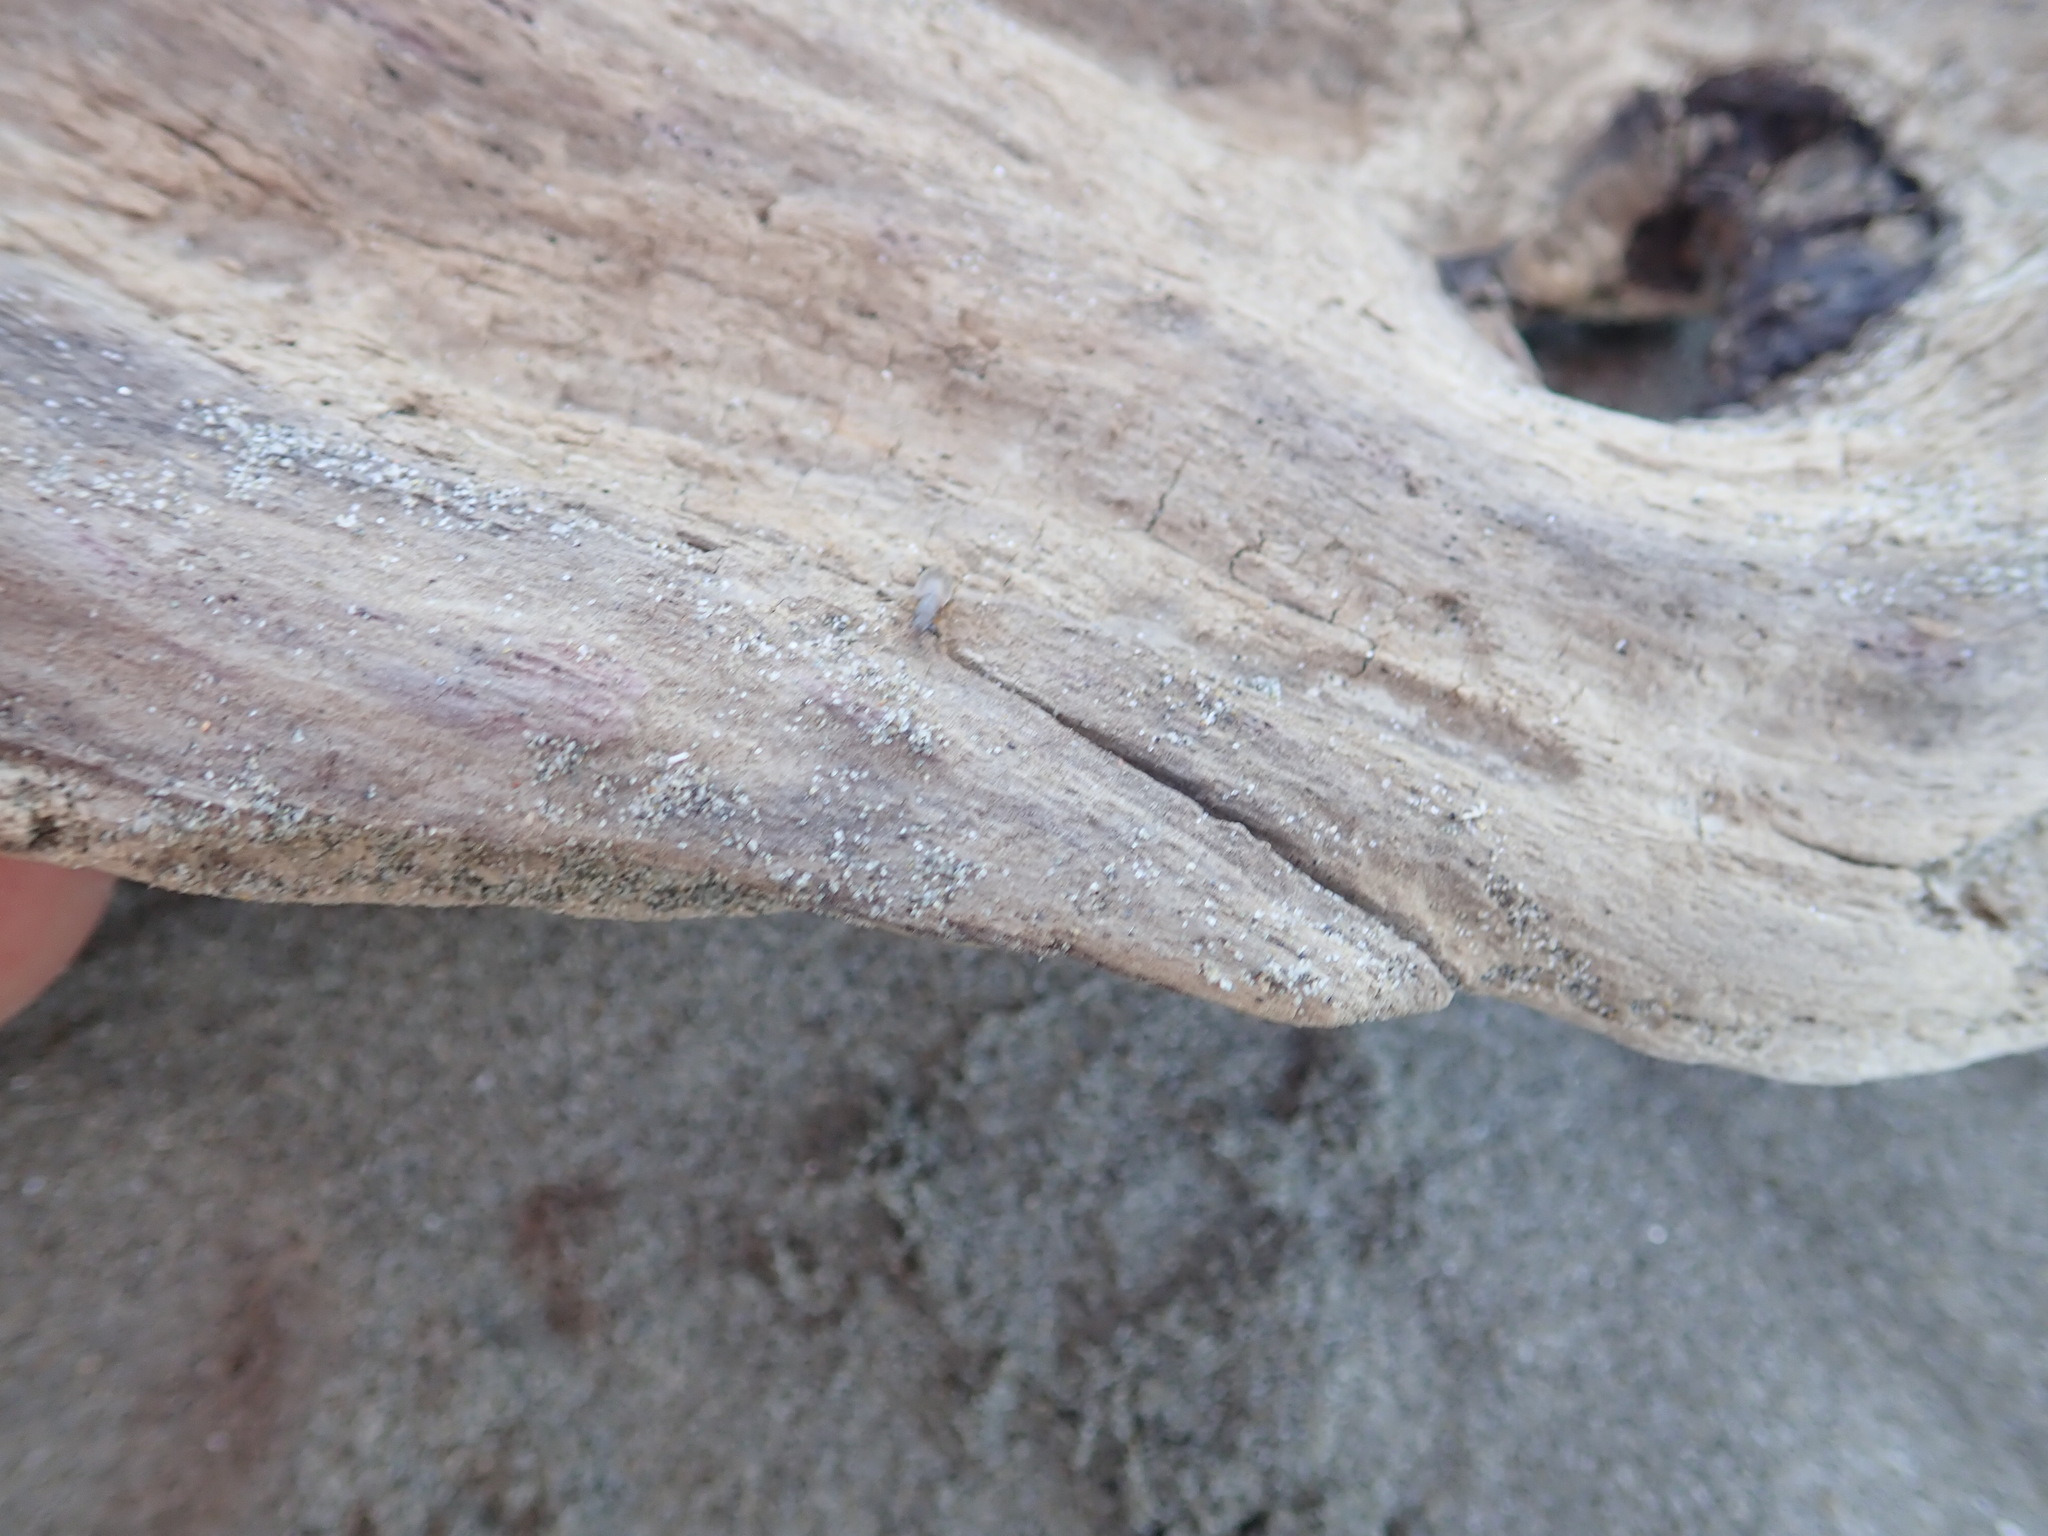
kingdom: Animalia
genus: Lagrioda
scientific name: Lagrioda brounii
